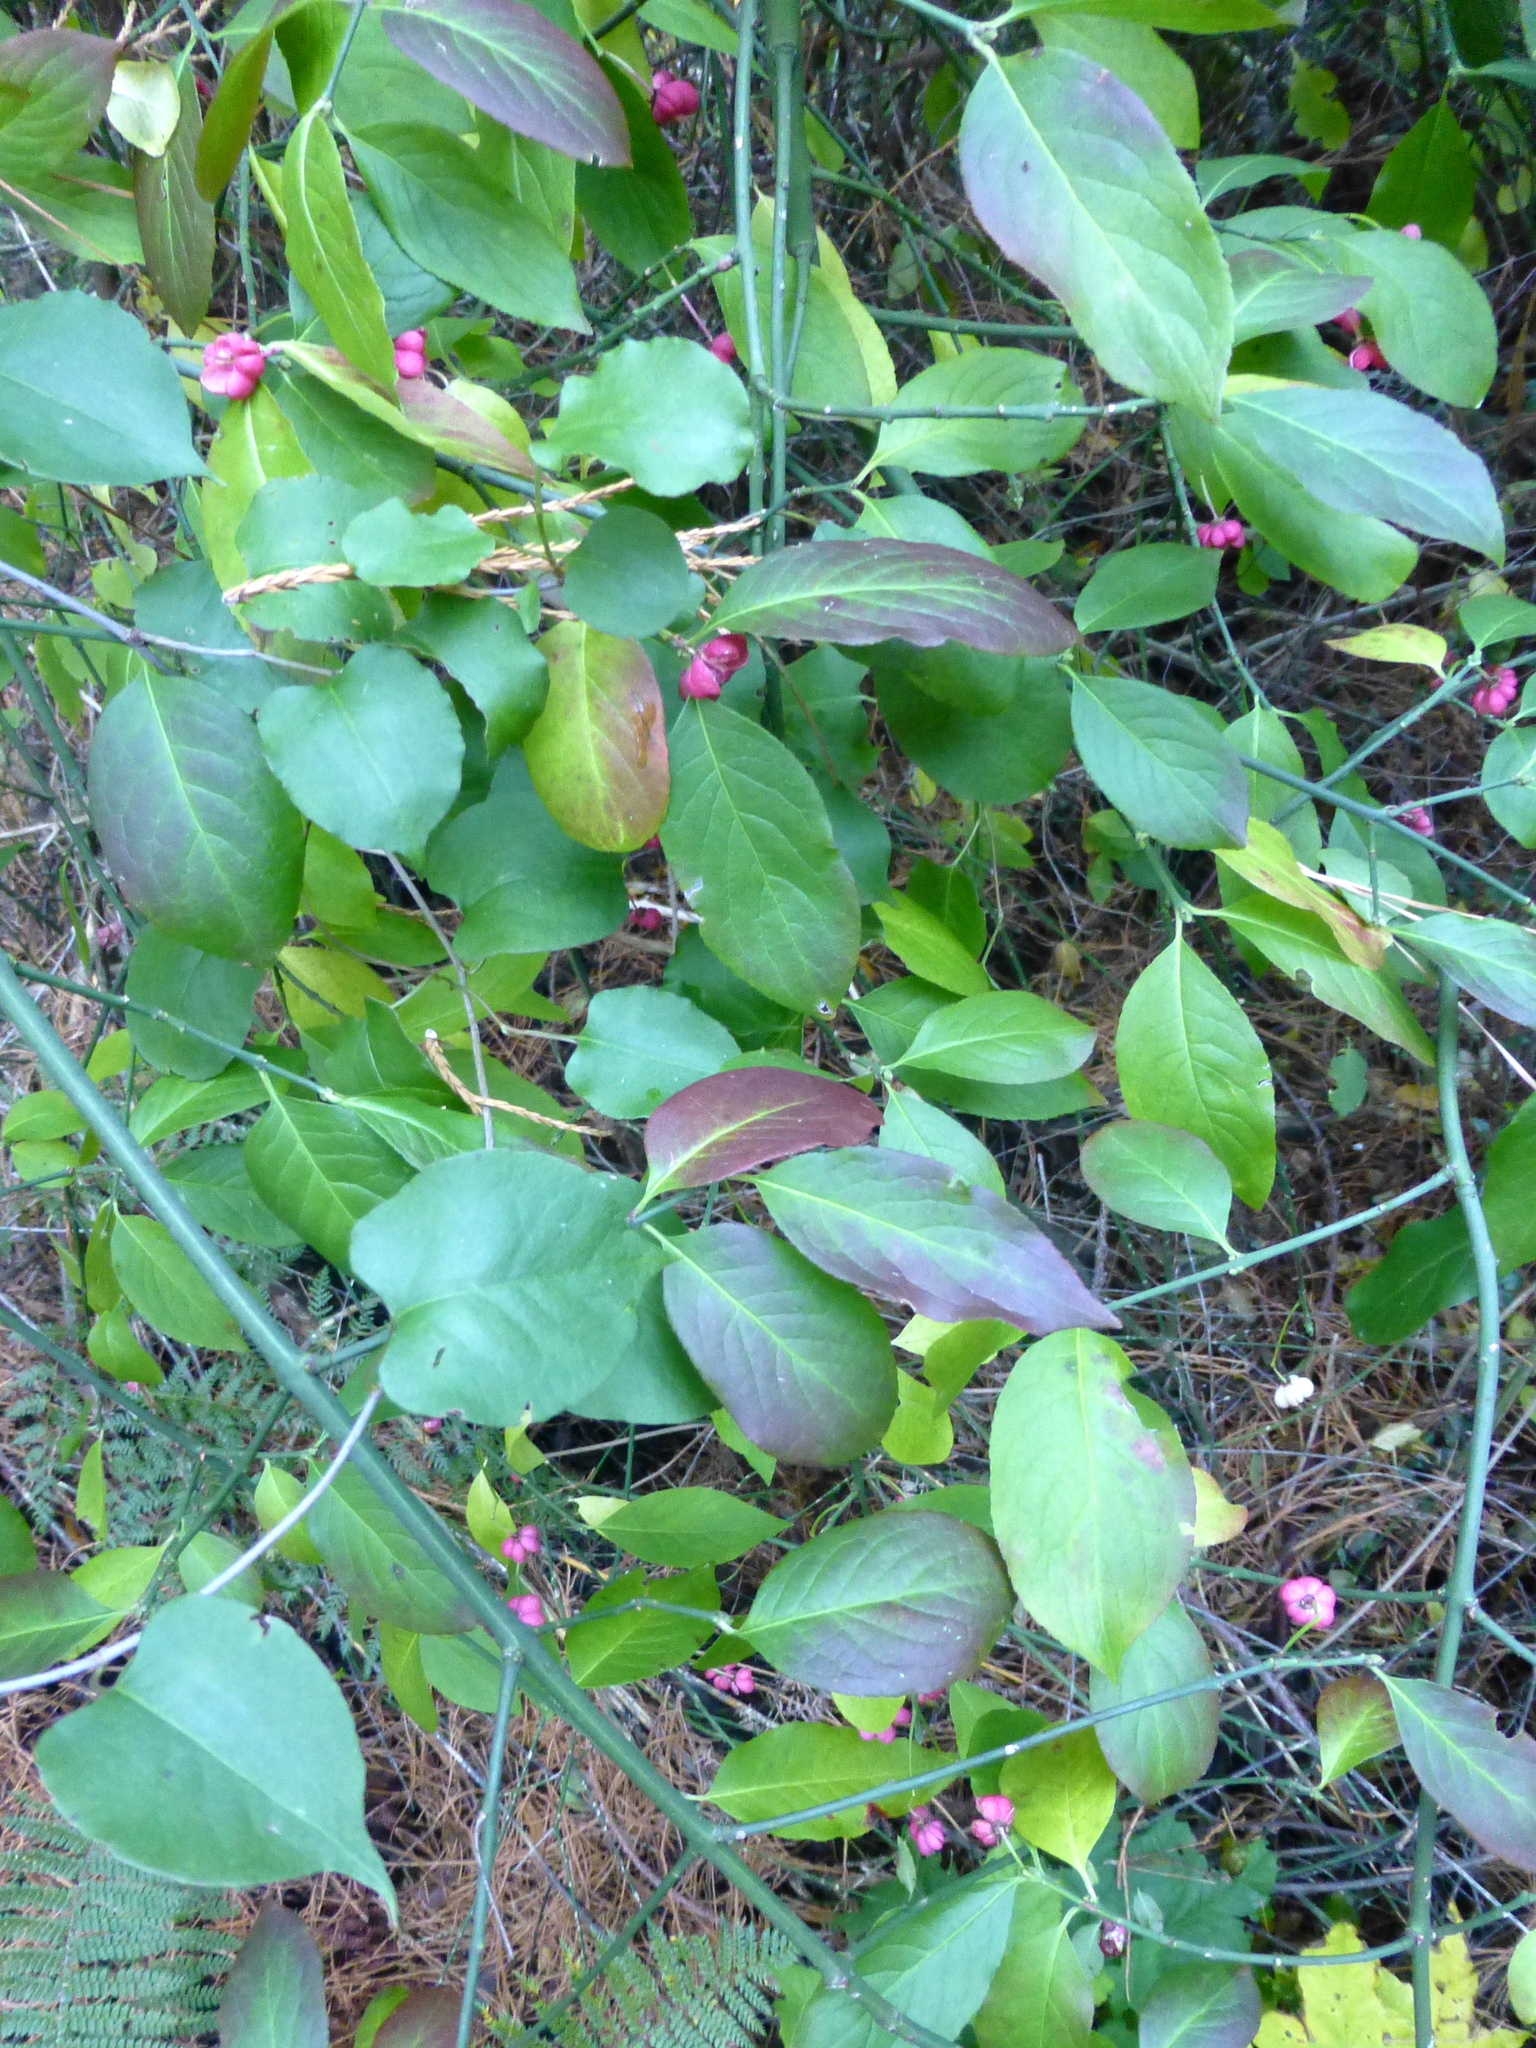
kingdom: Plantae
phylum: Tracheophyta
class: Magnoliopsida
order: Celastrales
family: Celastraceae
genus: Euonymus
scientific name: Euonymus europaeus
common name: Spindle
